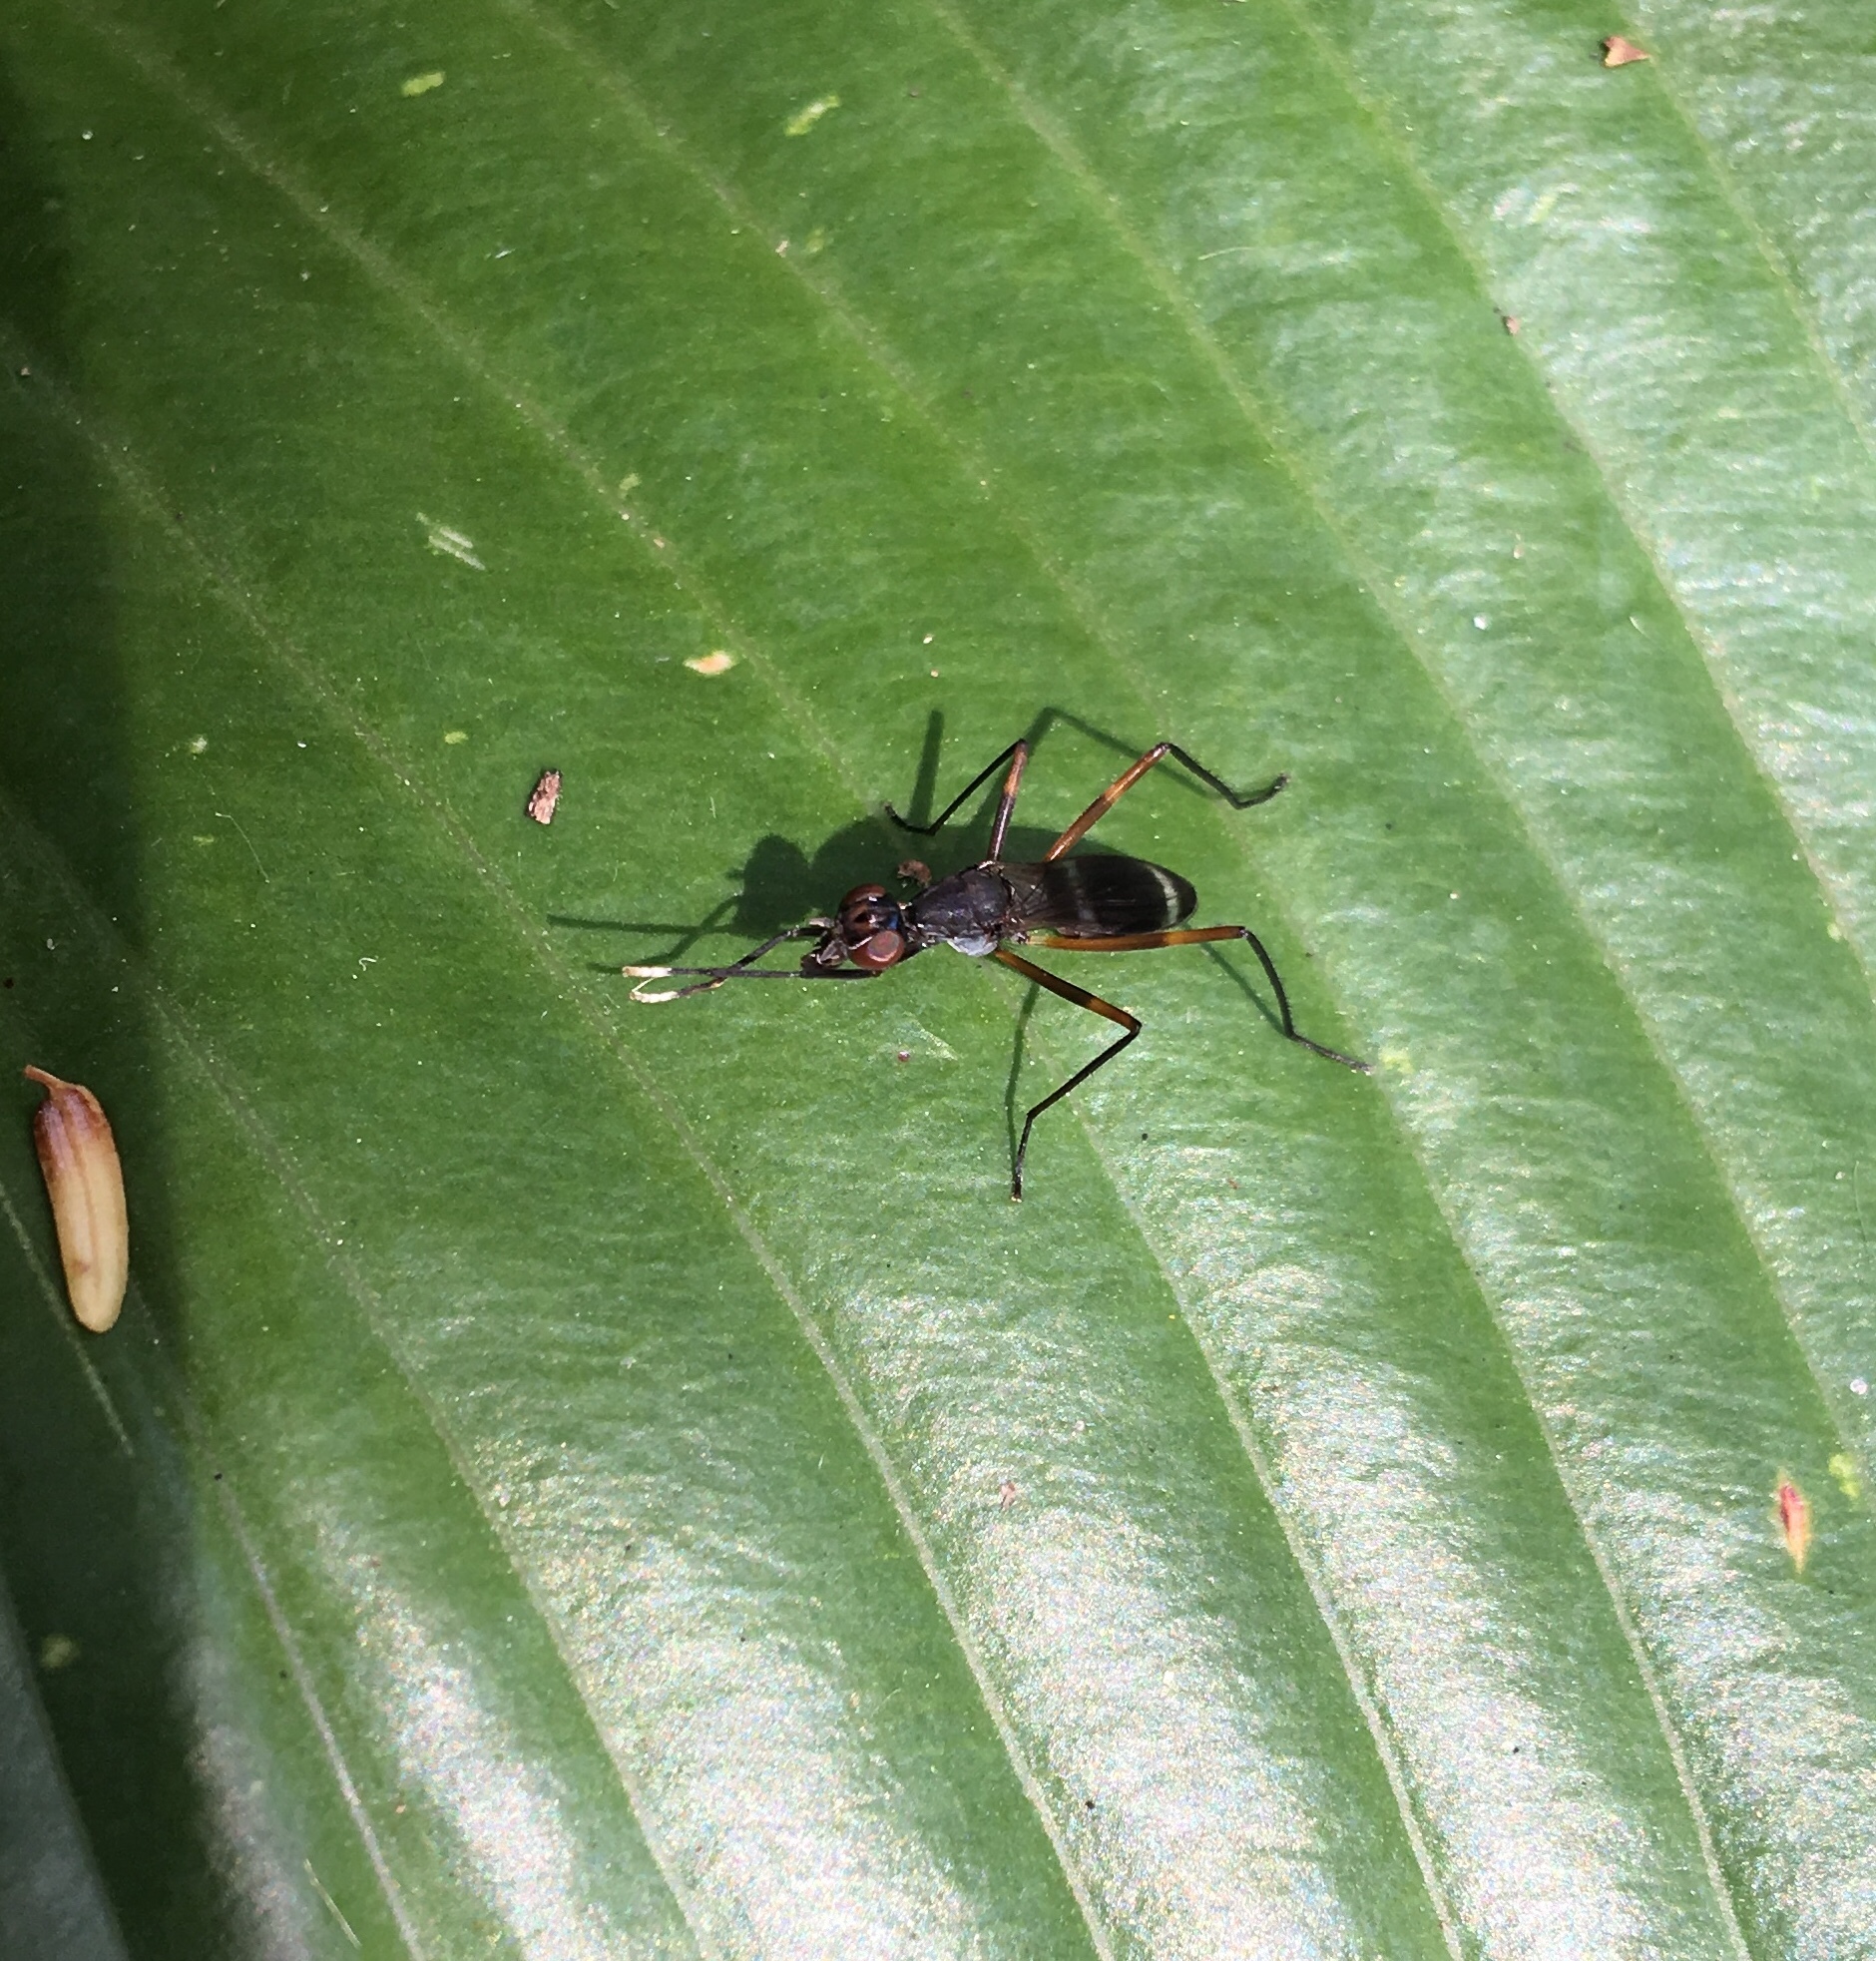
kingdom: Animalia
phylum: Arthropoda
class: Insecta
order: Diptera
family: Micropezidae
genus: Taeniaptera
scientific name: Taeniaptera trivittata
